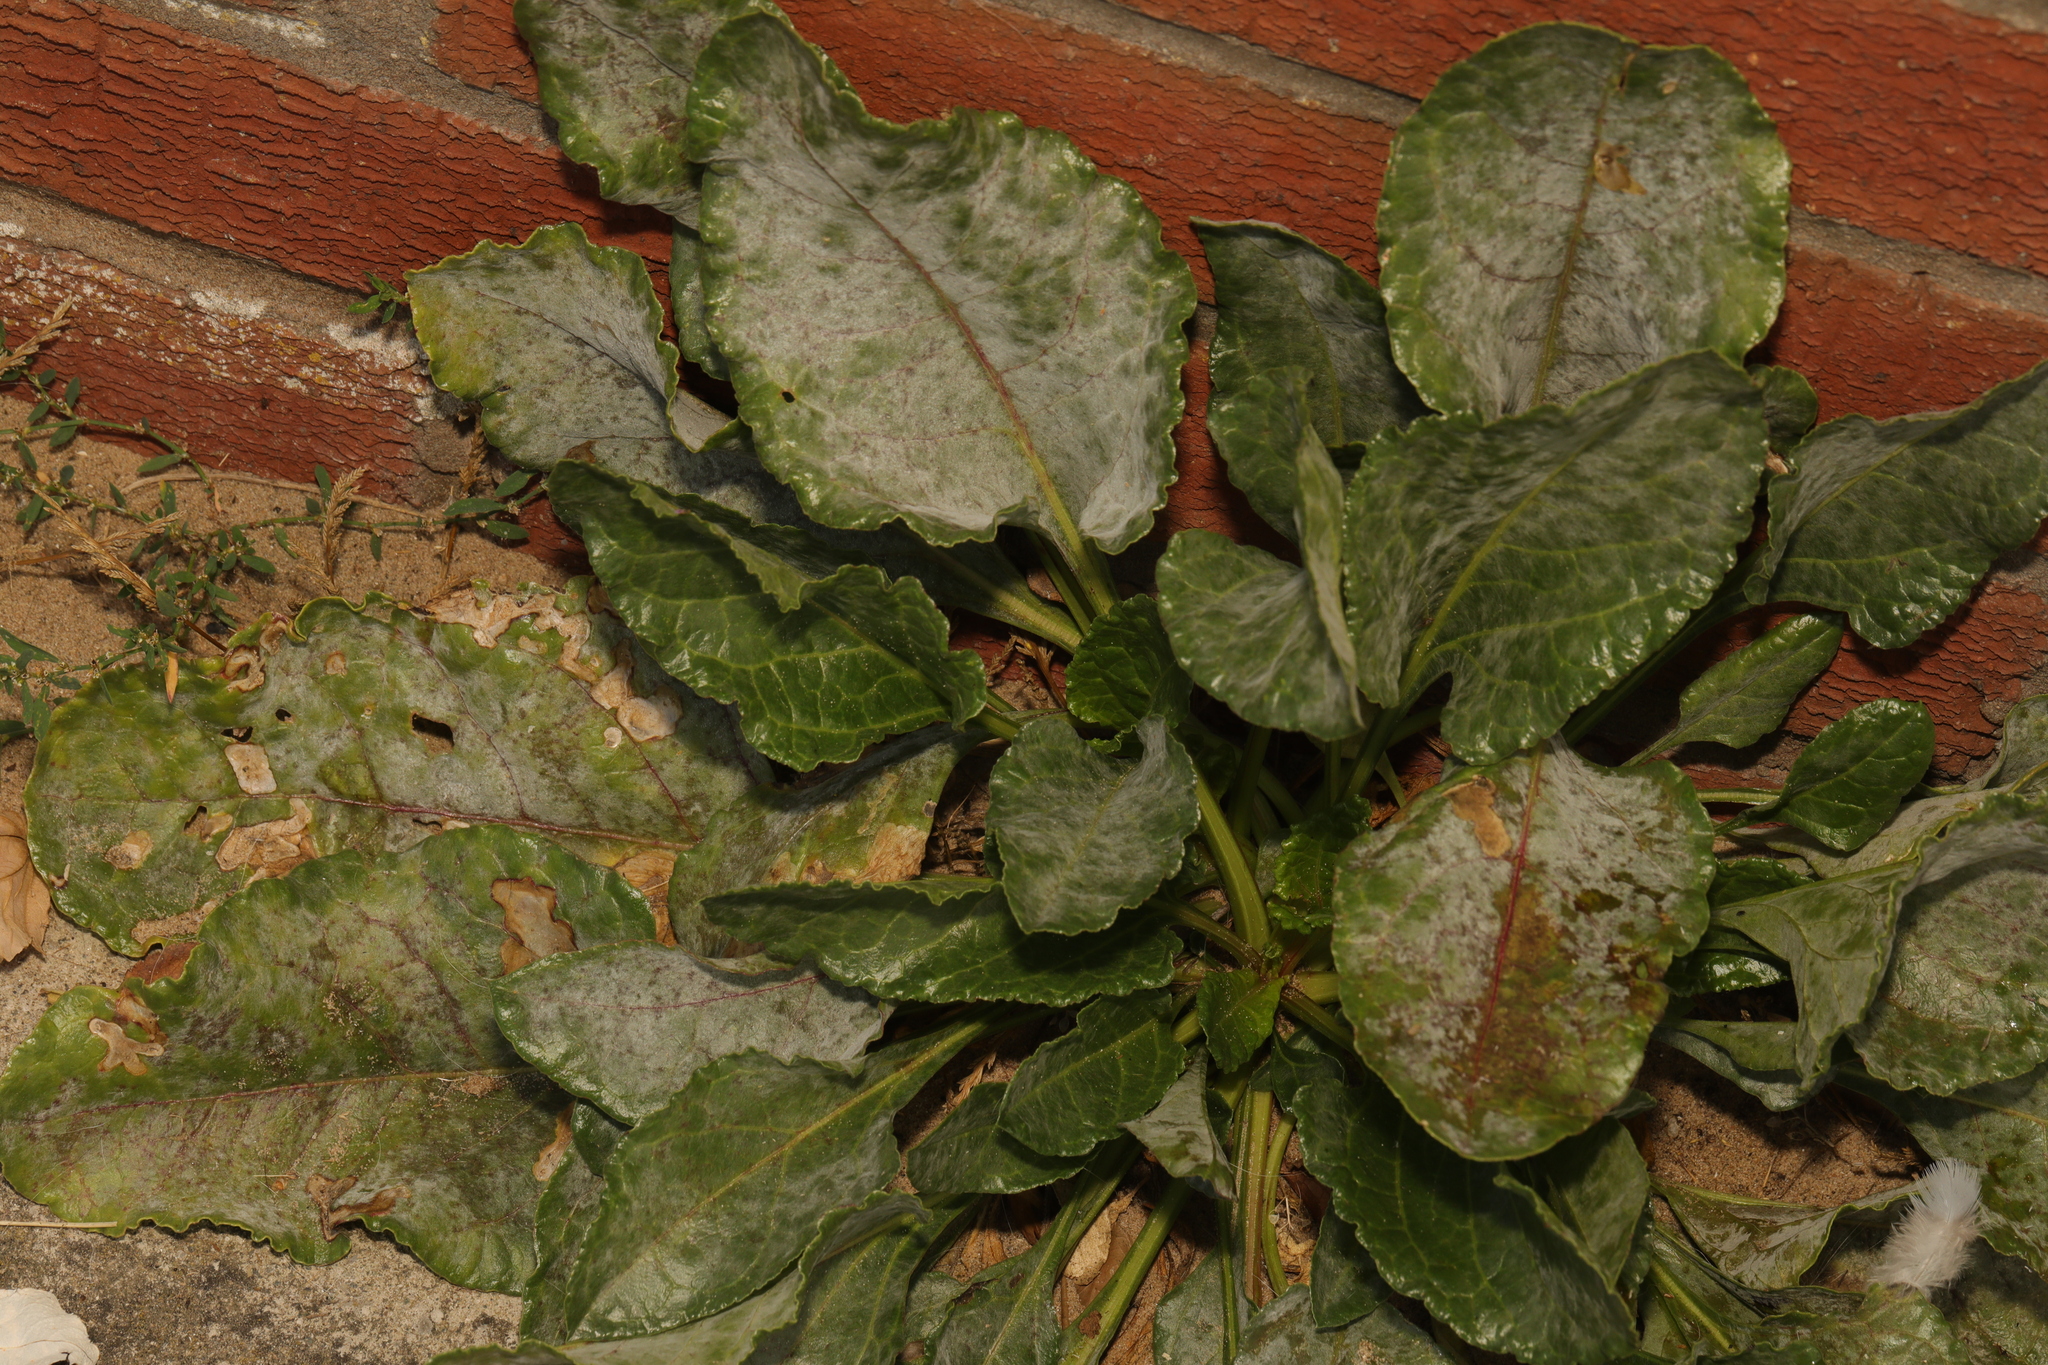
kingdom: Plantae
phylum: Tracheophyta
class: Magnoliopsida
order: Caryophyllales
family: Amaranthaceae
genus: Beta
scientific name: Beta vulgaris
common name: Beet
